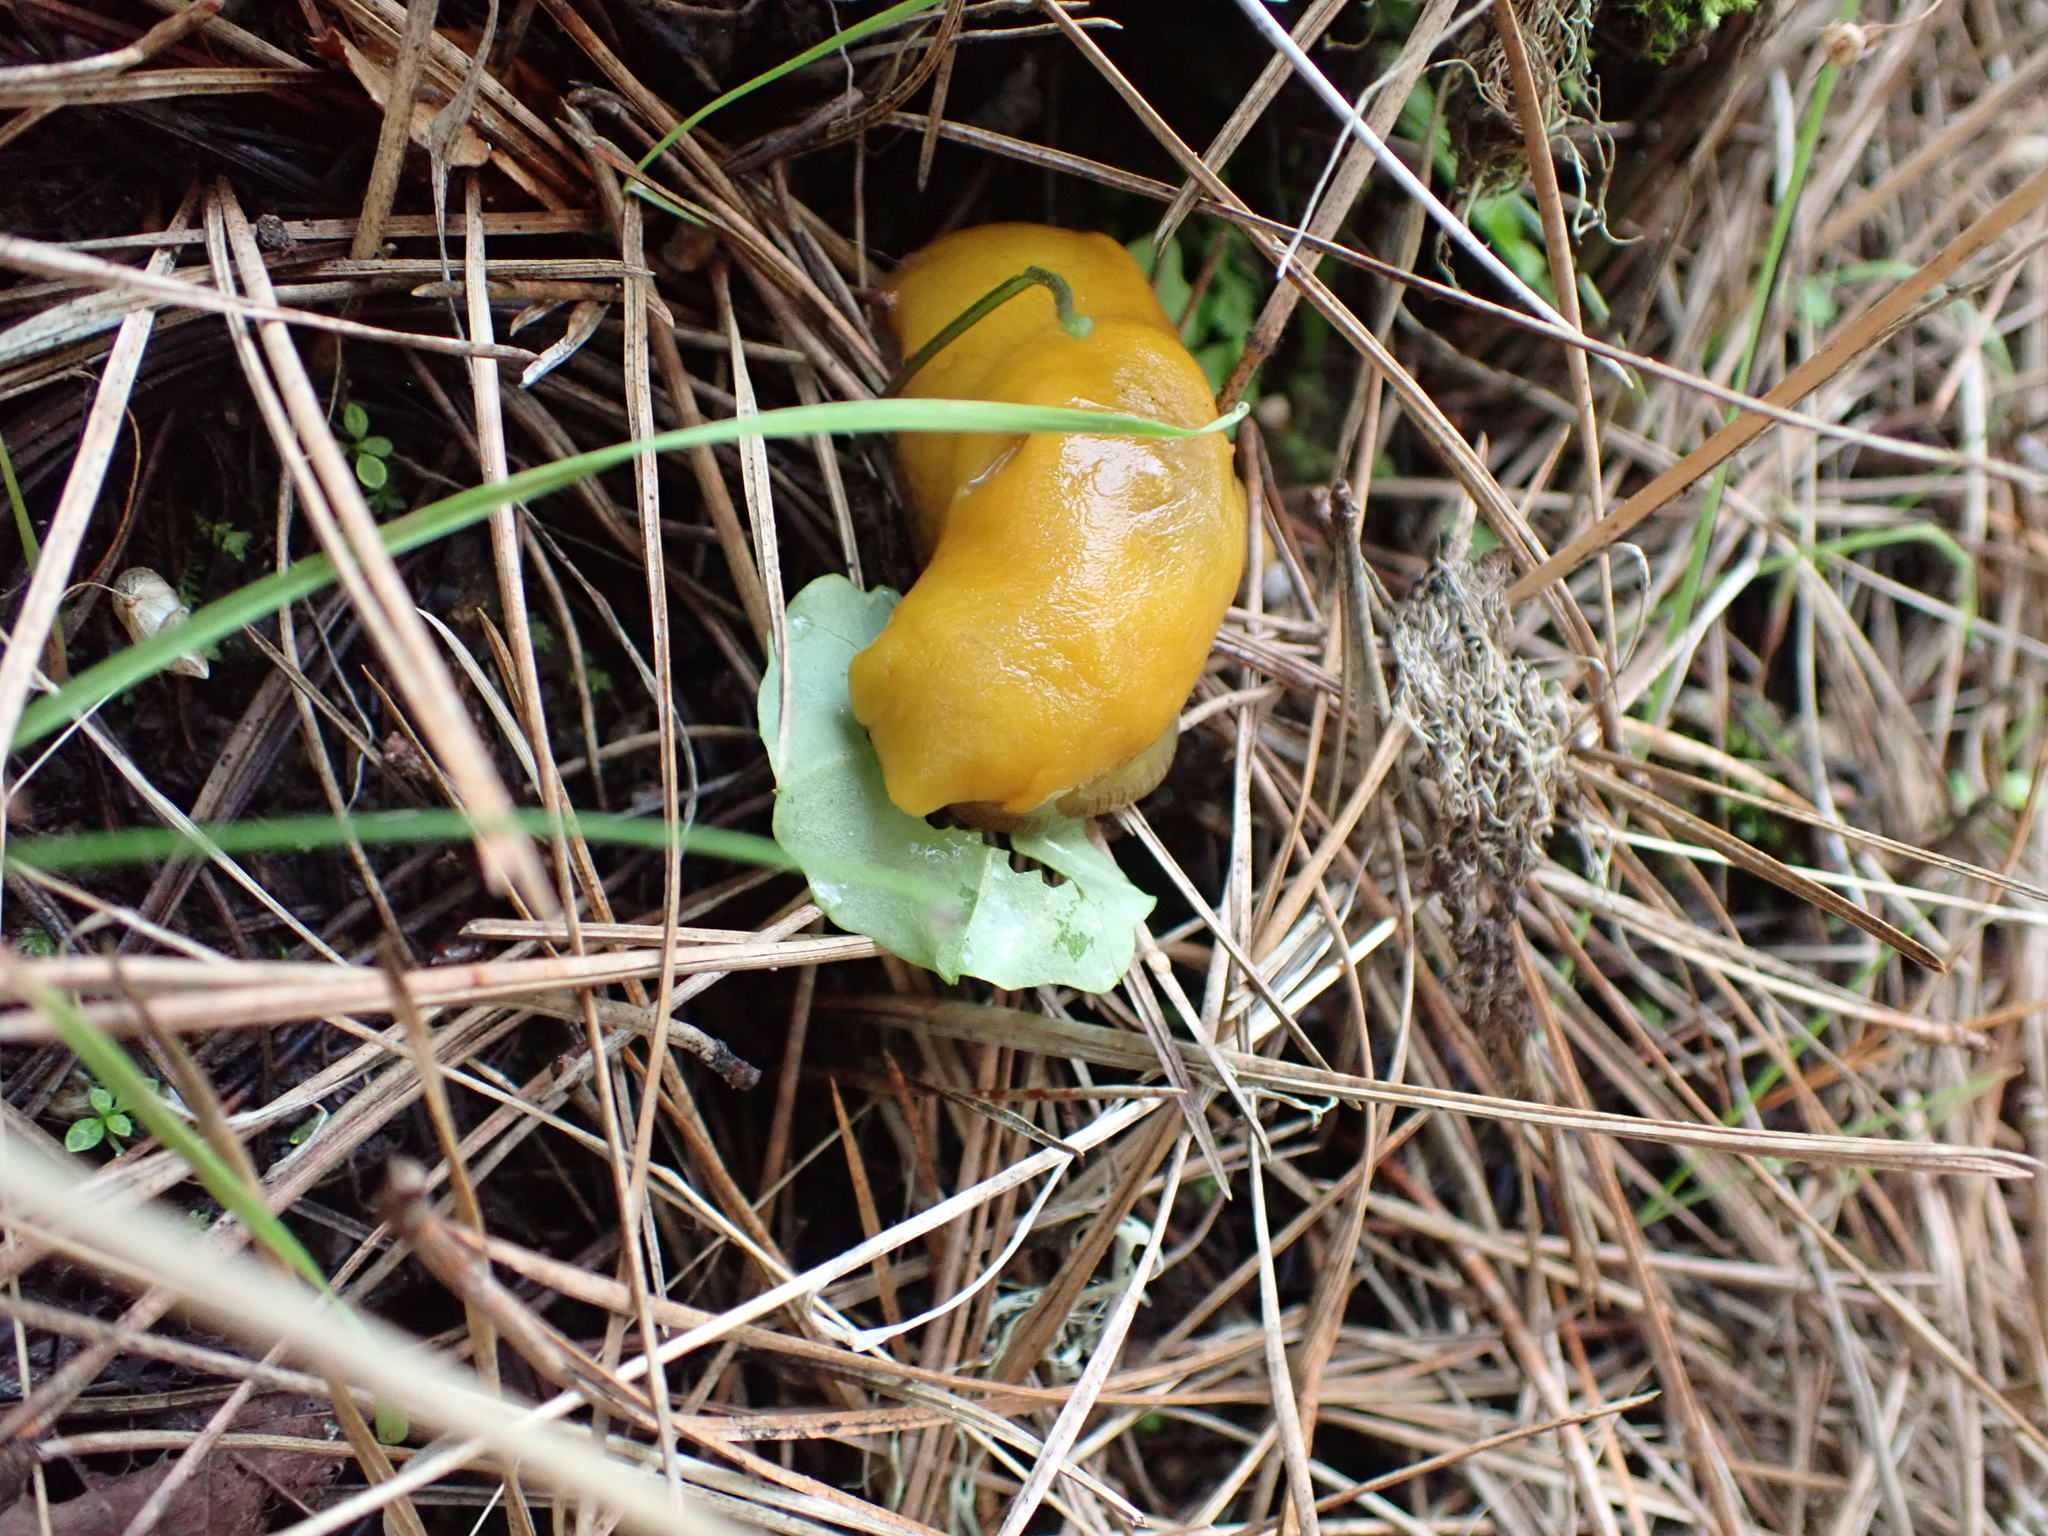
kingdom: Animalia
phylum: Mollusca
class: Gastropoda
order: Stylommatophora
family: Ariolimacidae
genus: Ariolimax
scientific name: Ariolimax californicus
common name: California banana slug
